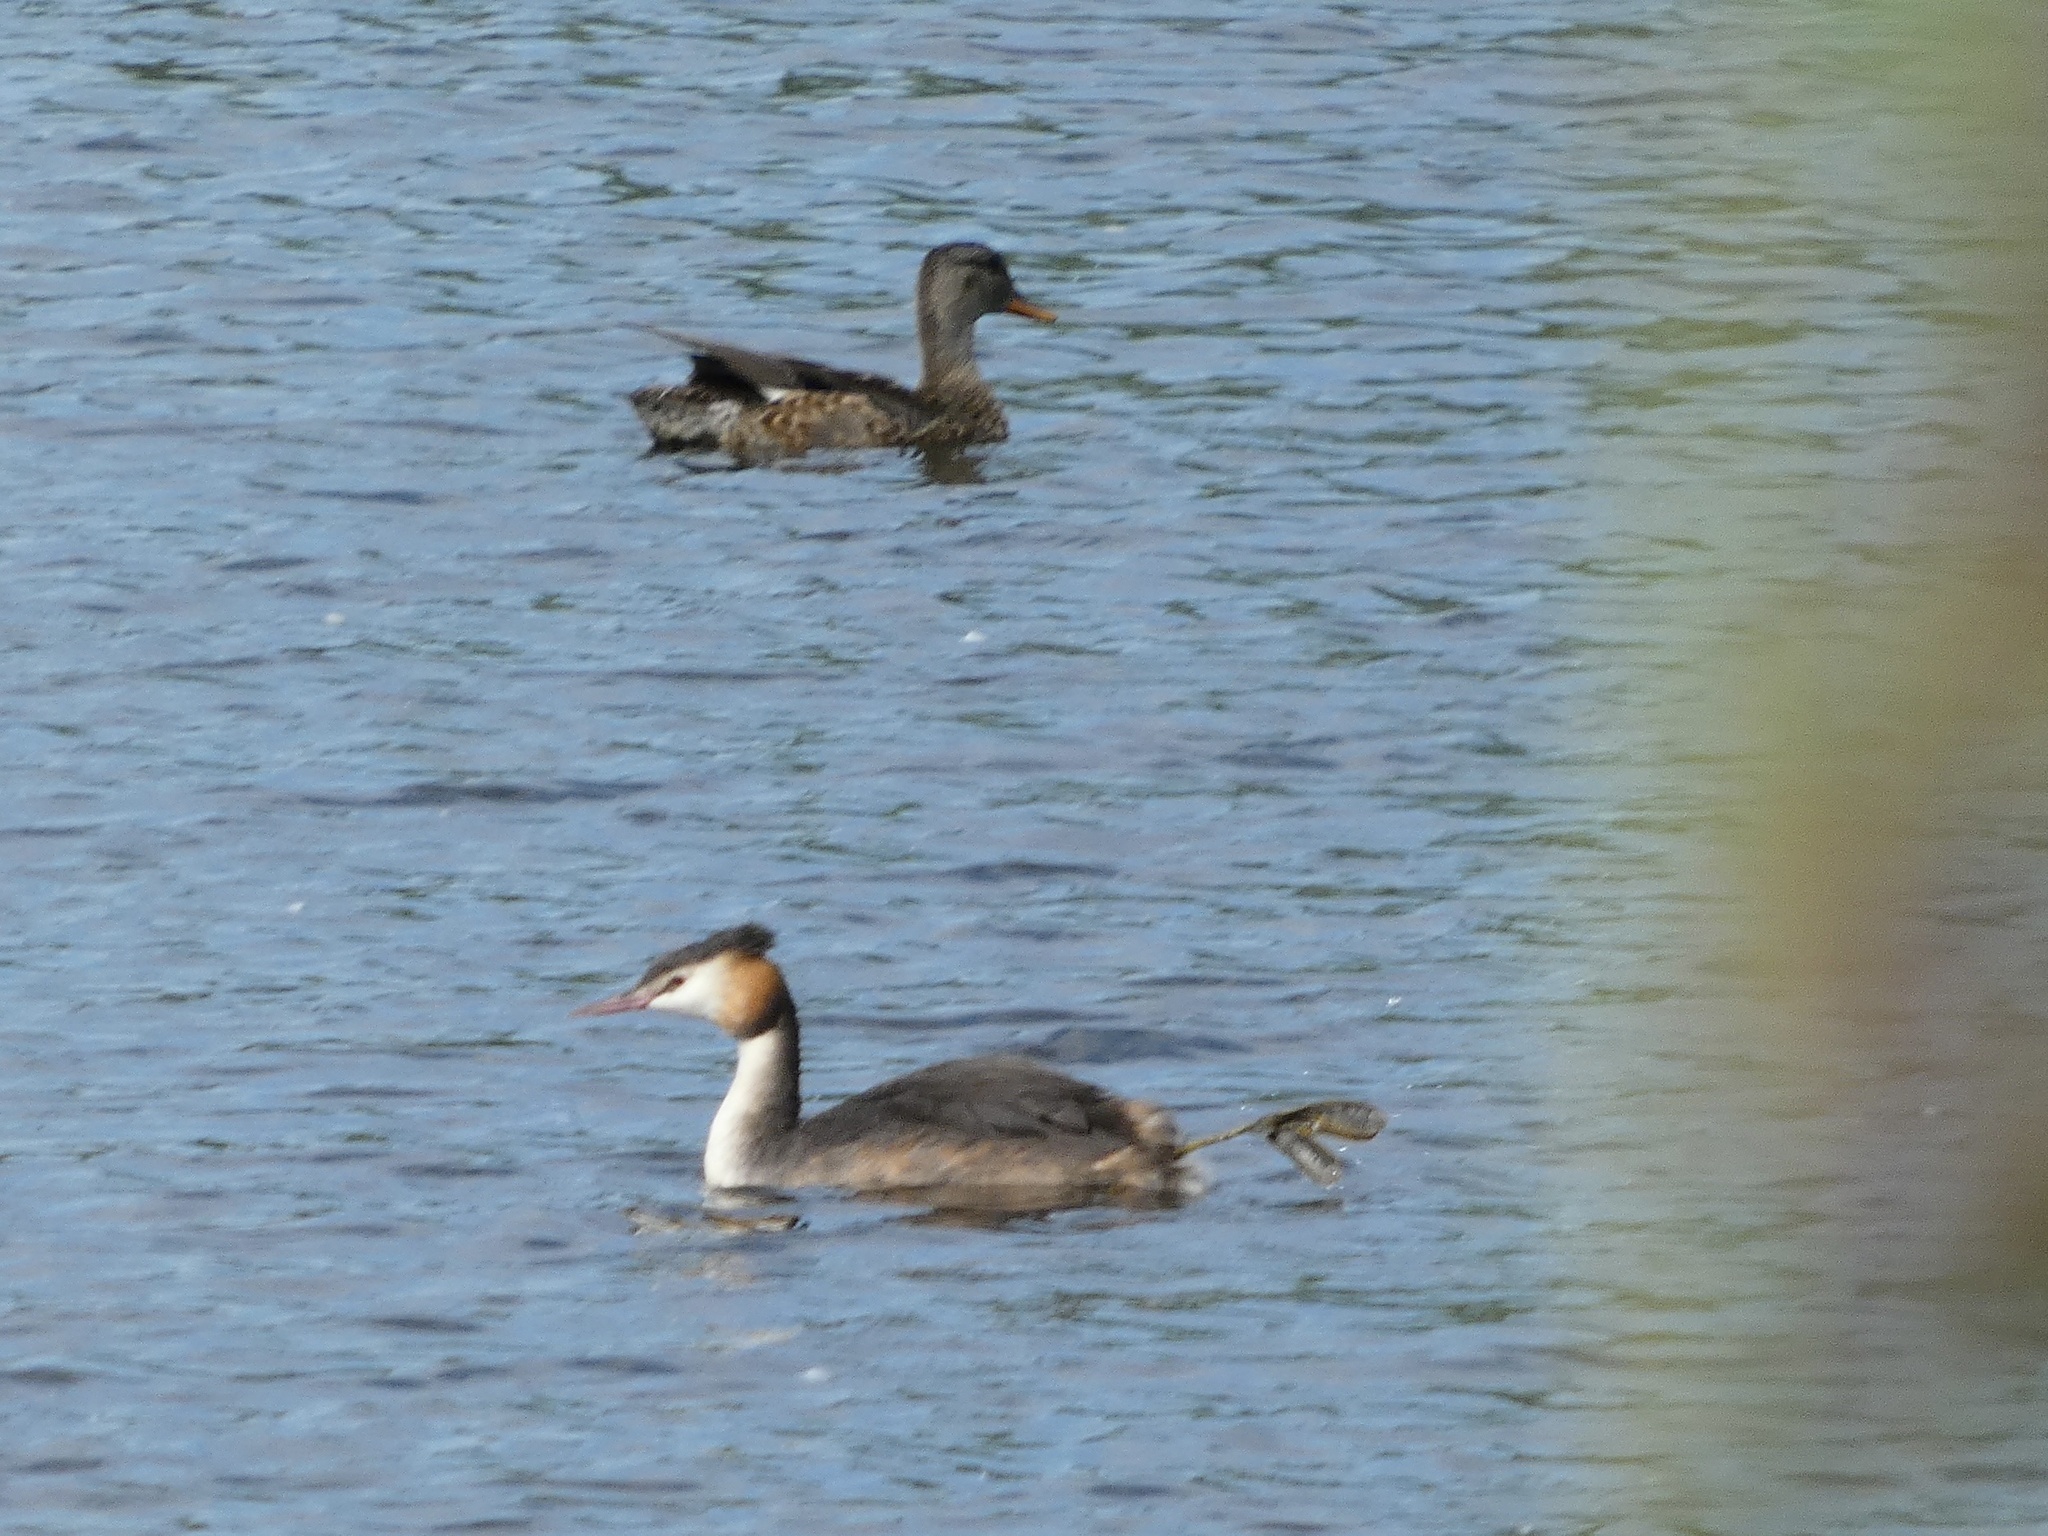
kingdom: Animalia
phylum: Chordata
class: Aves
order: Anseriformes
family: Anatidae
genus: Mareca
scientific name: Mareca strepera
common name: Gadwall
